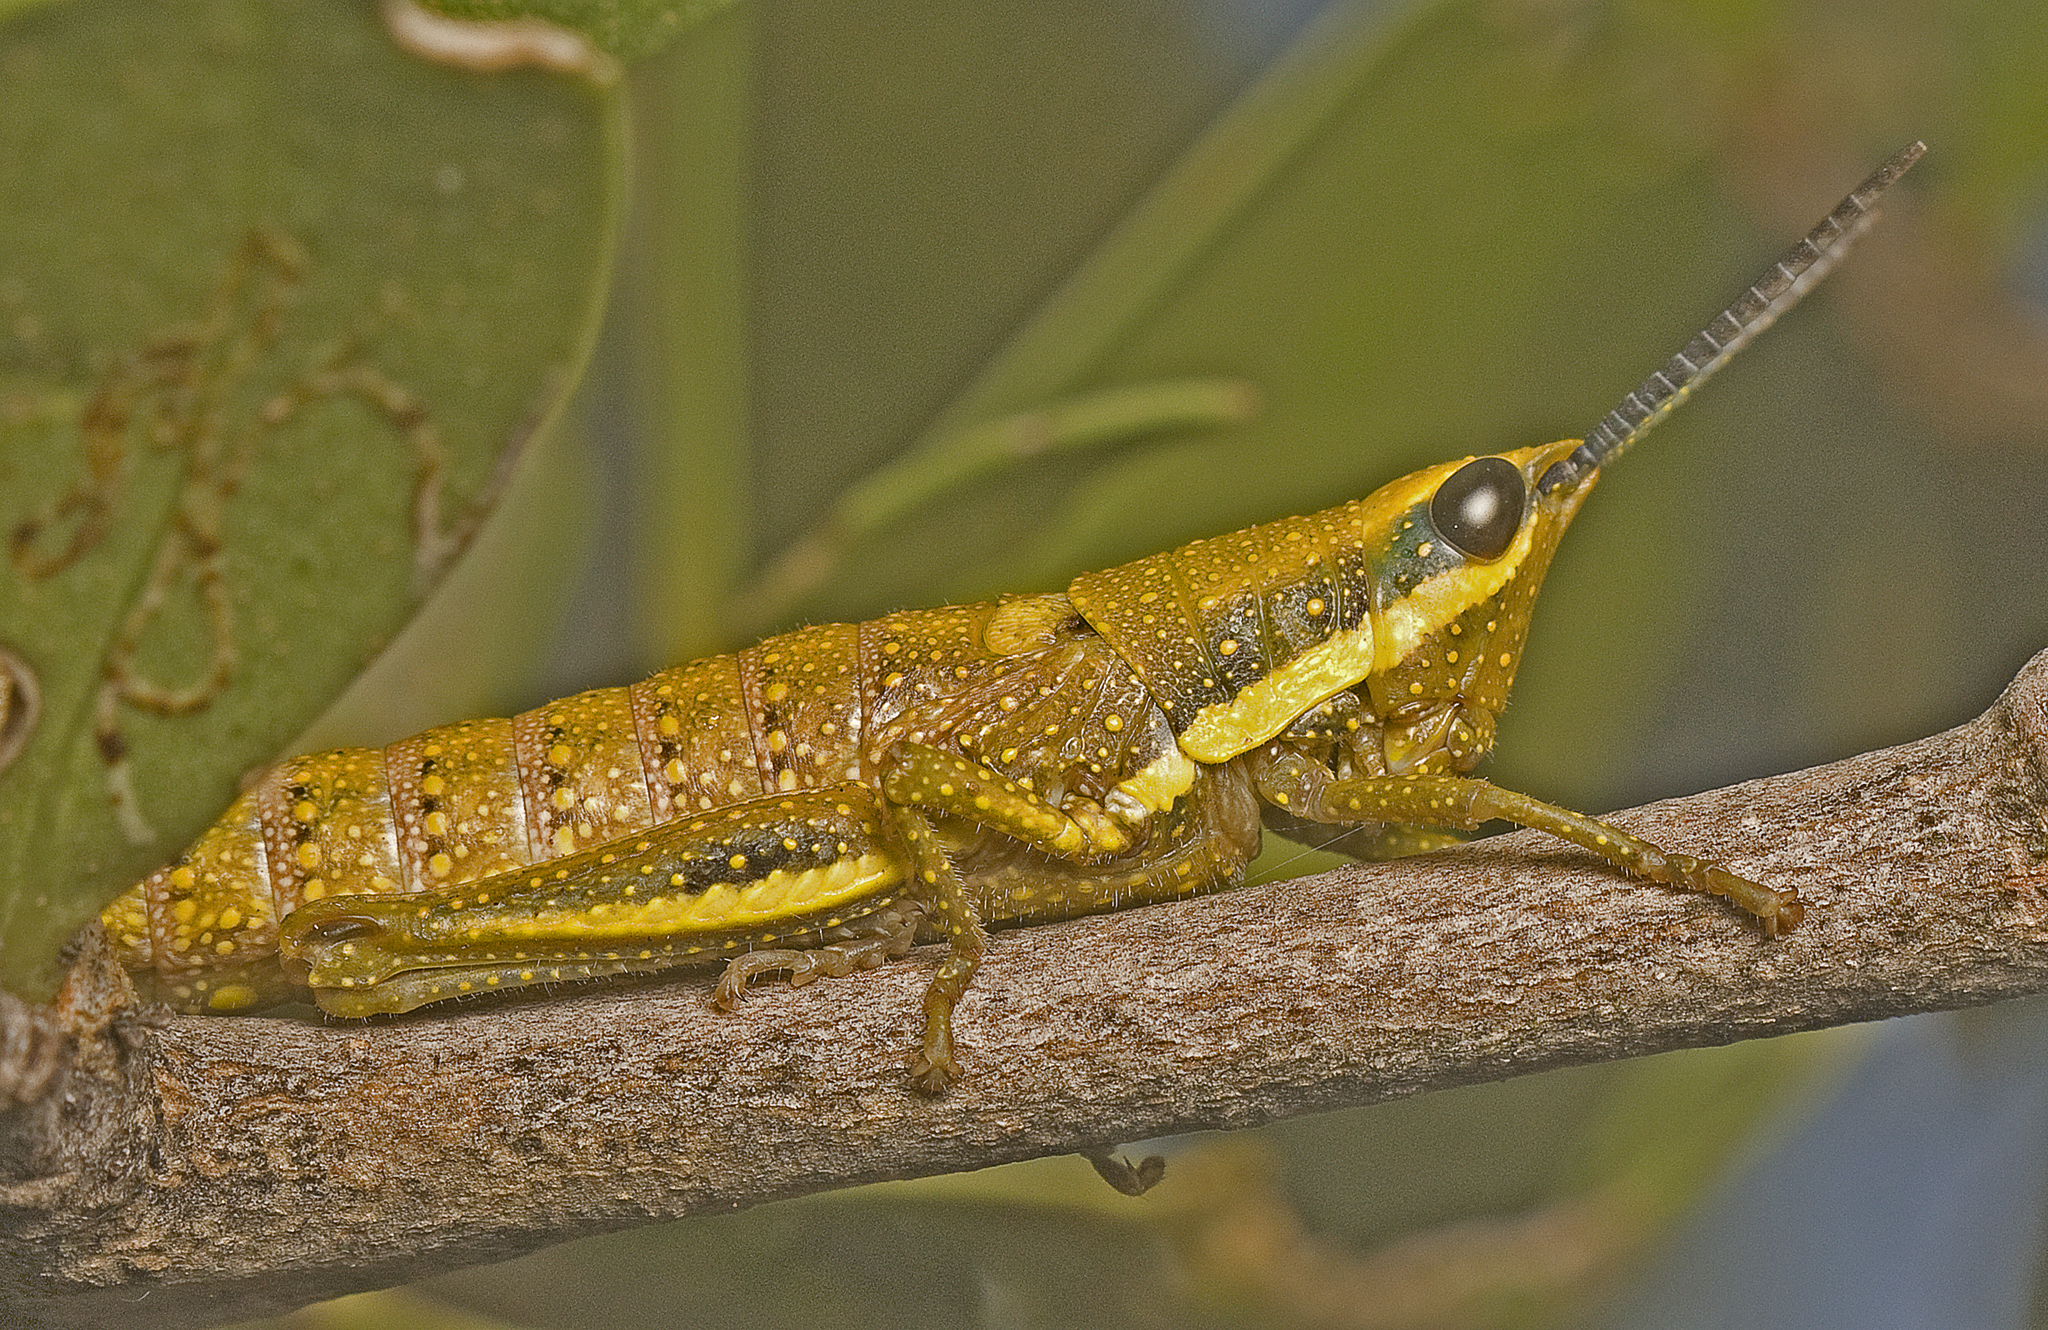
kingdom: Animalia
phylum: Arthropoda
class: Insecta
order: Orthoptera
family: Pyrgomorphidae
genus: Monistria
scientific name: Monistria discrepans
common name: Common pyrgomorph
